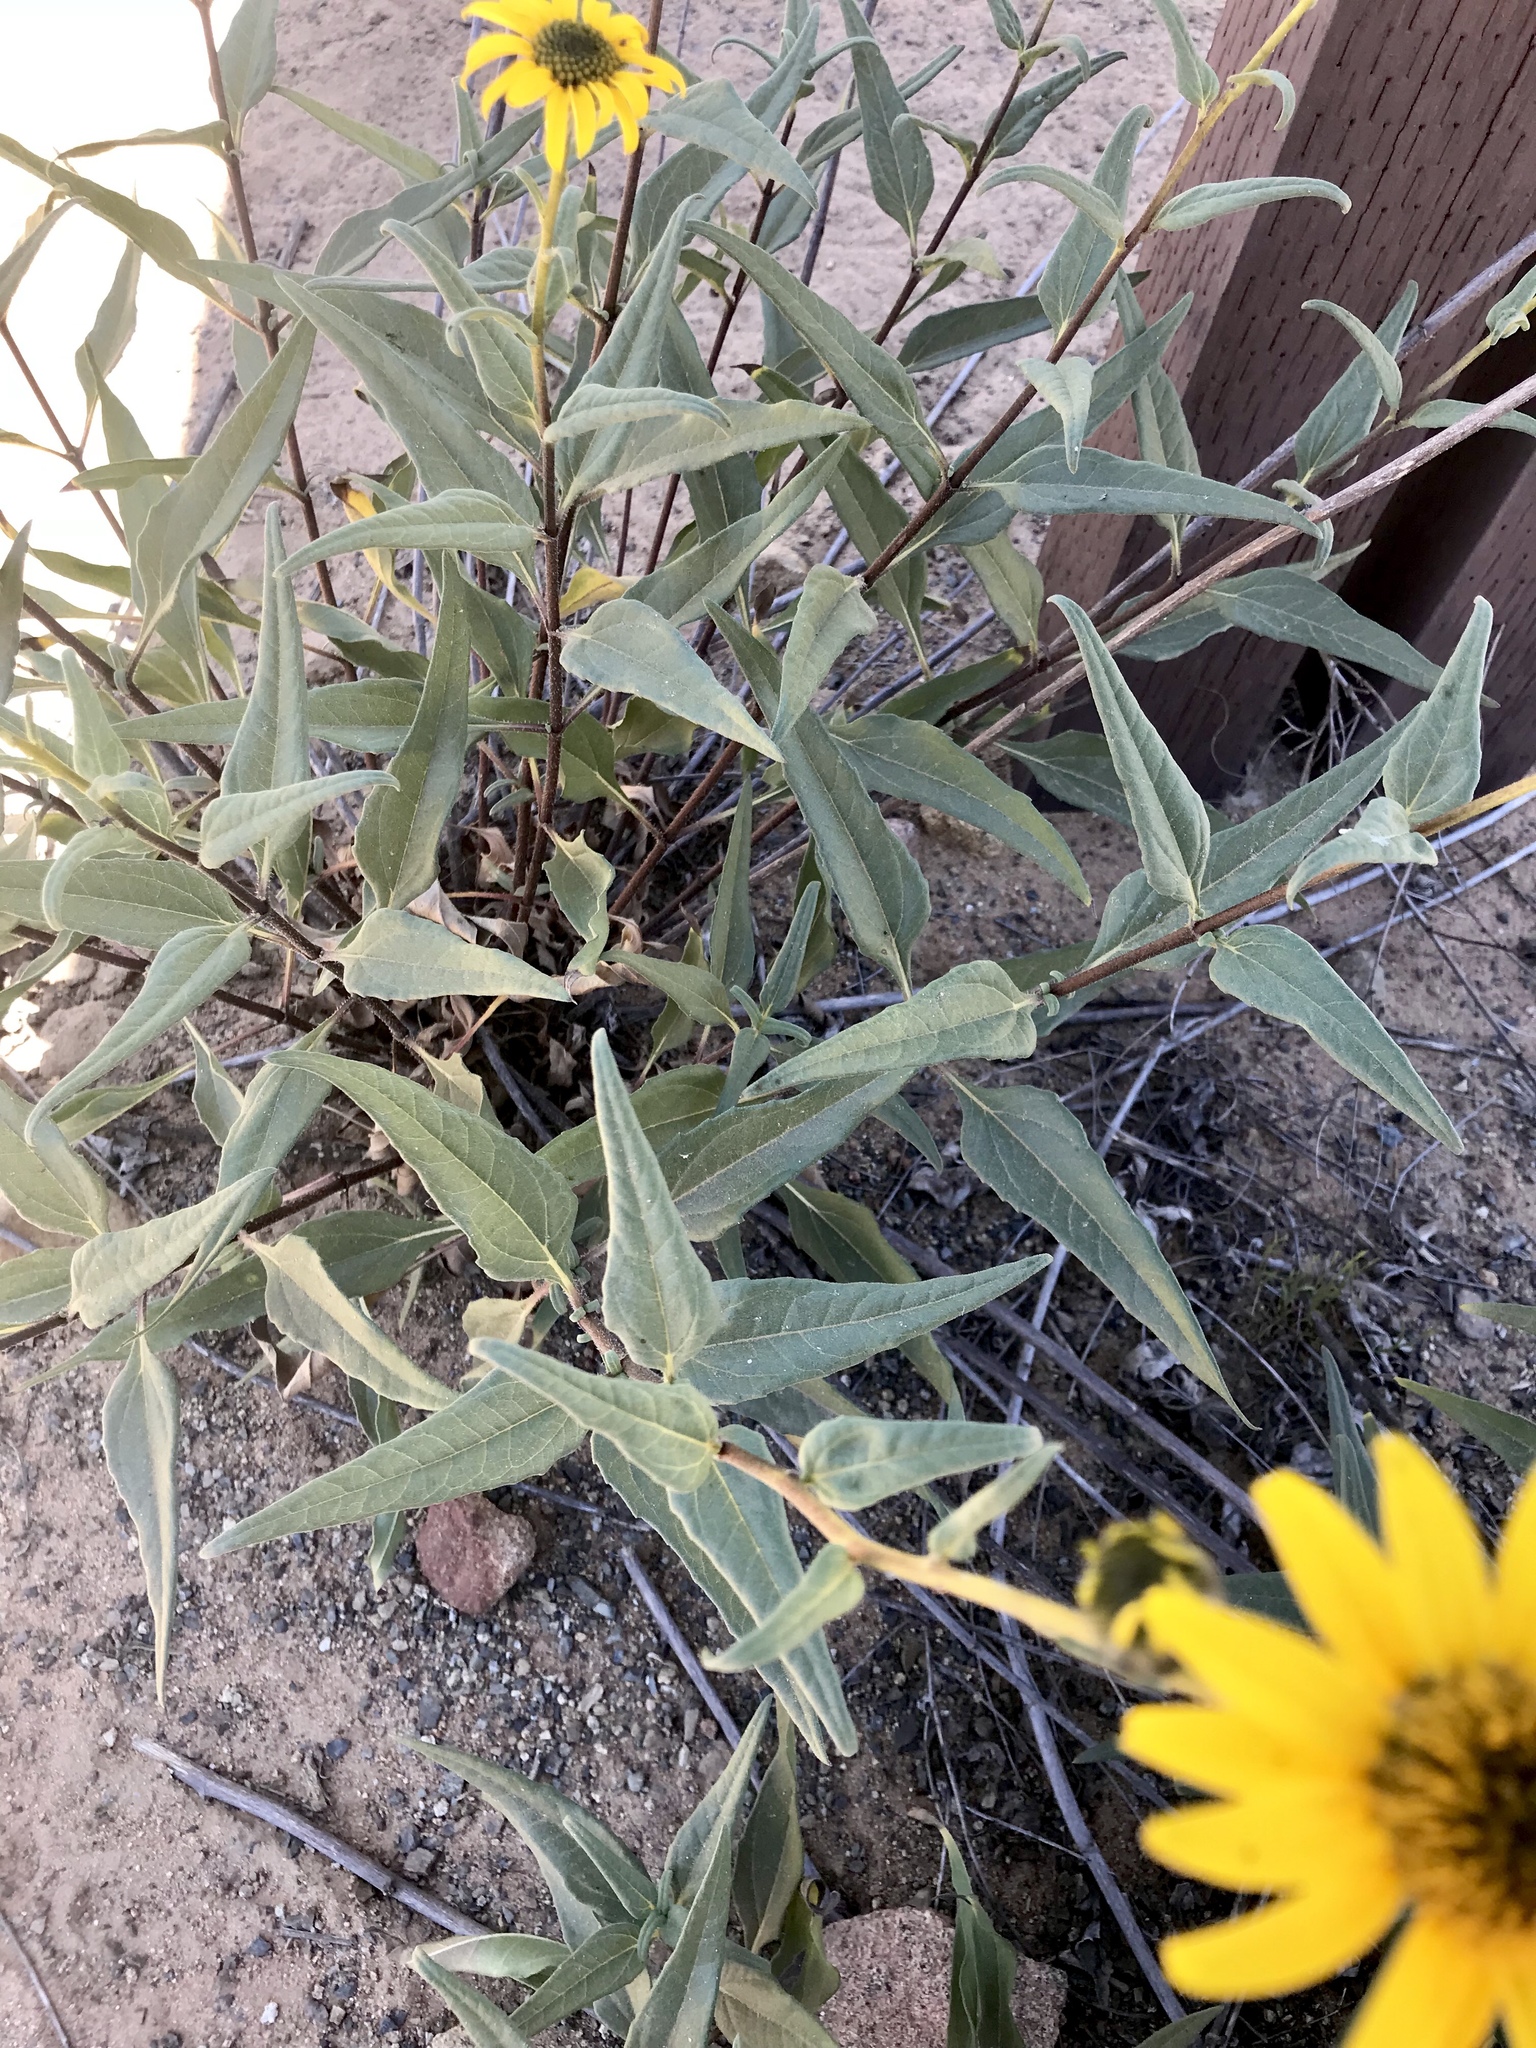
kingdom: Plantae
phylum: Tracheophyta
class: Magnoliopsida
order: Asterales
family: Asteraceae
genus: Helianthus
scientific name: Helianthus gracilentus
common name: Slender sunflower
